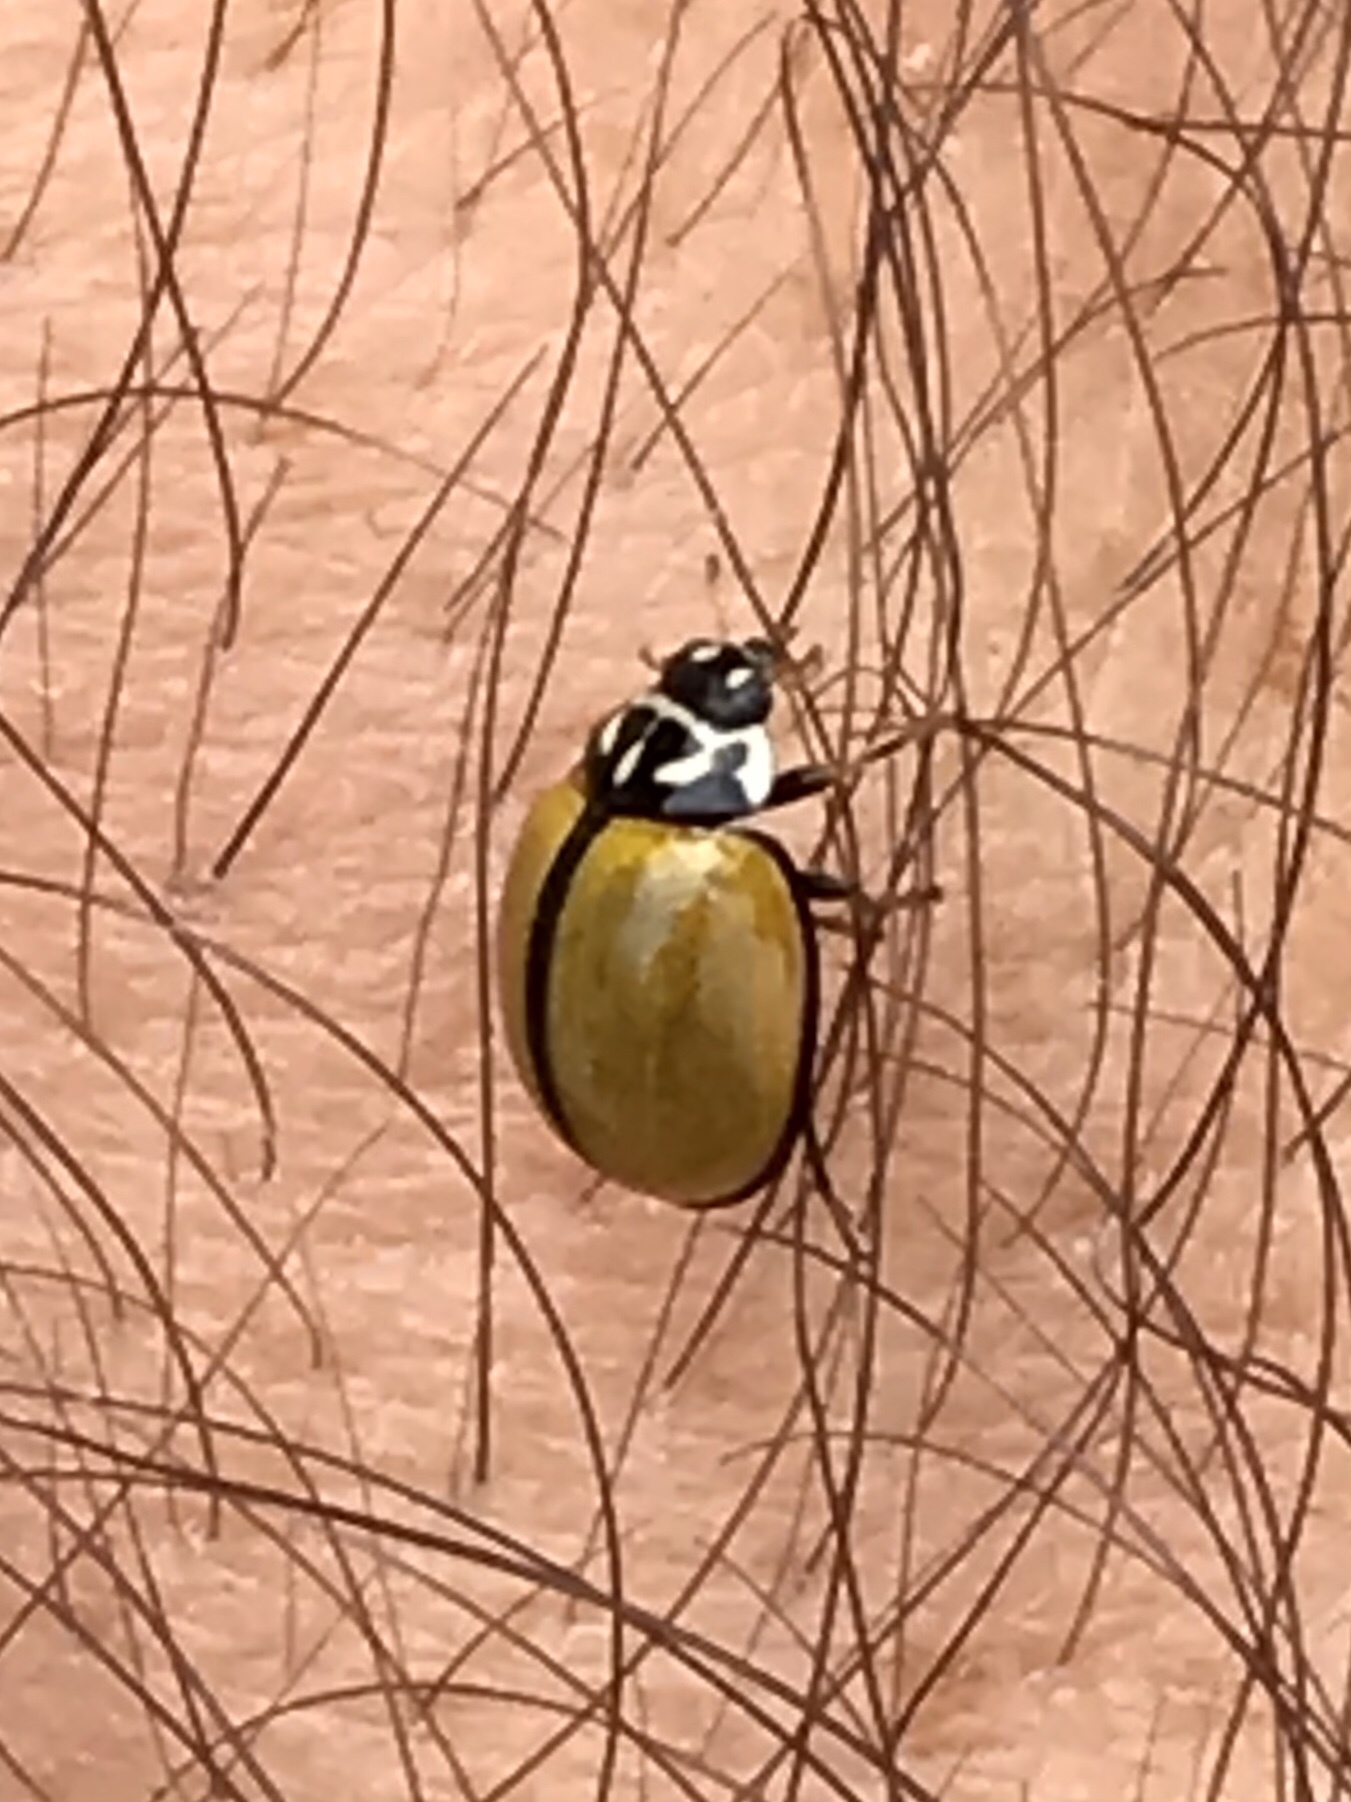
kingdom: Animalia
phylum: Arthropoda
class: Insecta
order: Coleoptera
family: Coccinellidae
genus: Oenopia
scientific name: Oenopia
